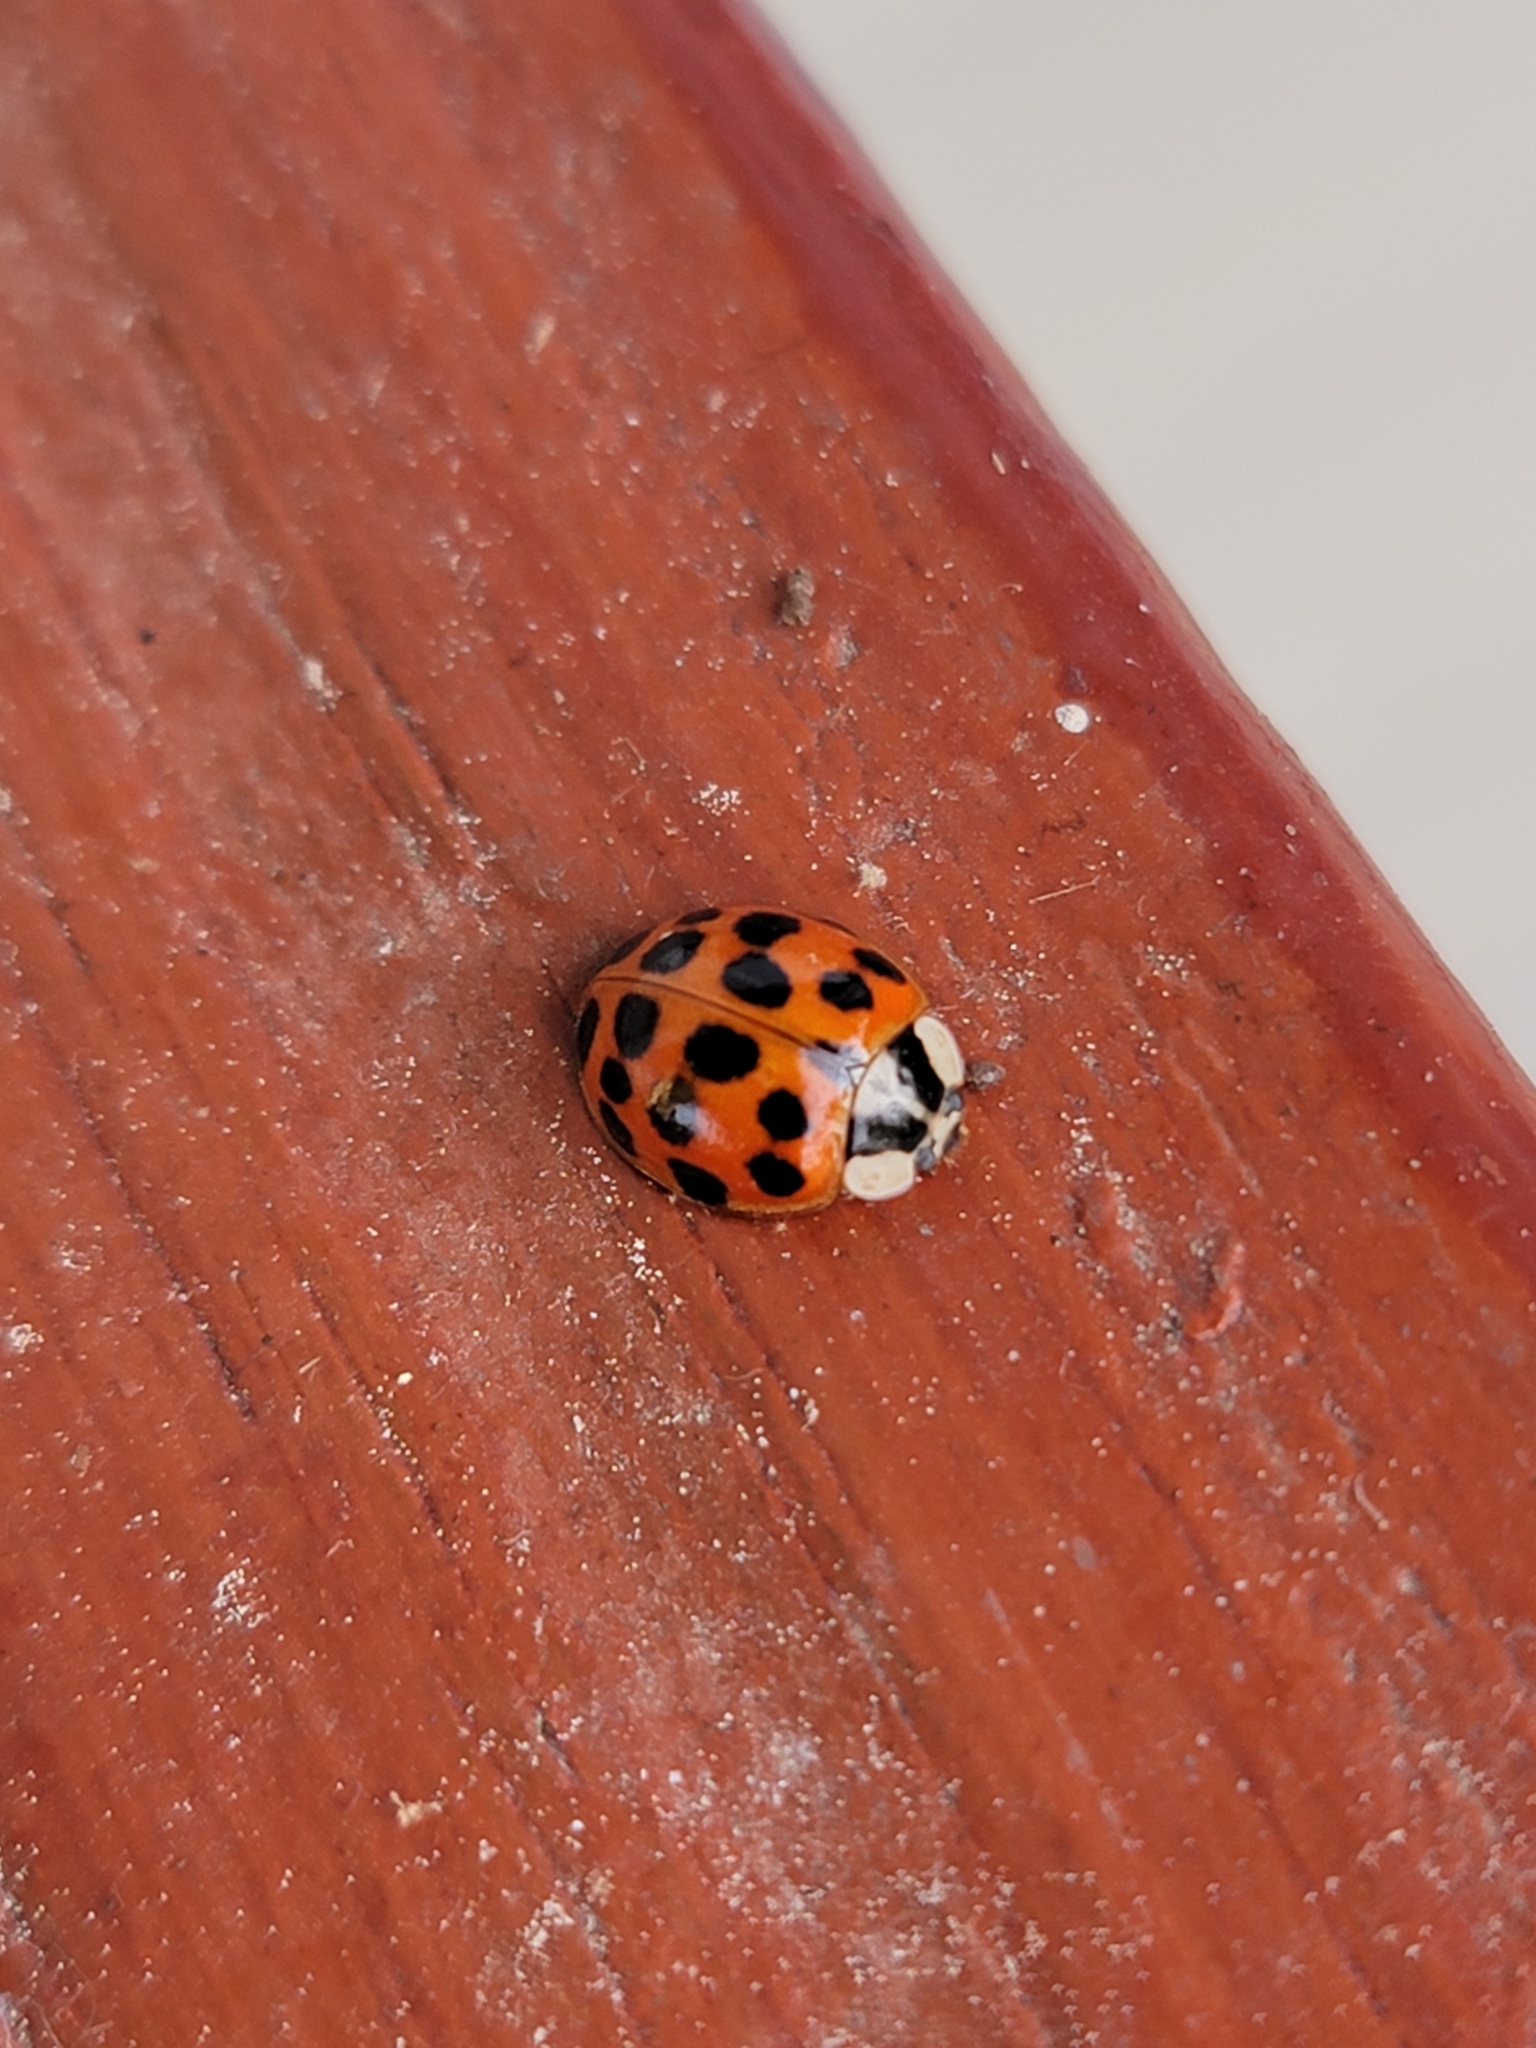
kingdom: Animalia
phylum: Arthropoda
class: Insecta
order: Coleoptera
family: Coccinellidae
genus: Harmonia
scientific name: Harmonia axyridis
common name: Harlequin ladybird
